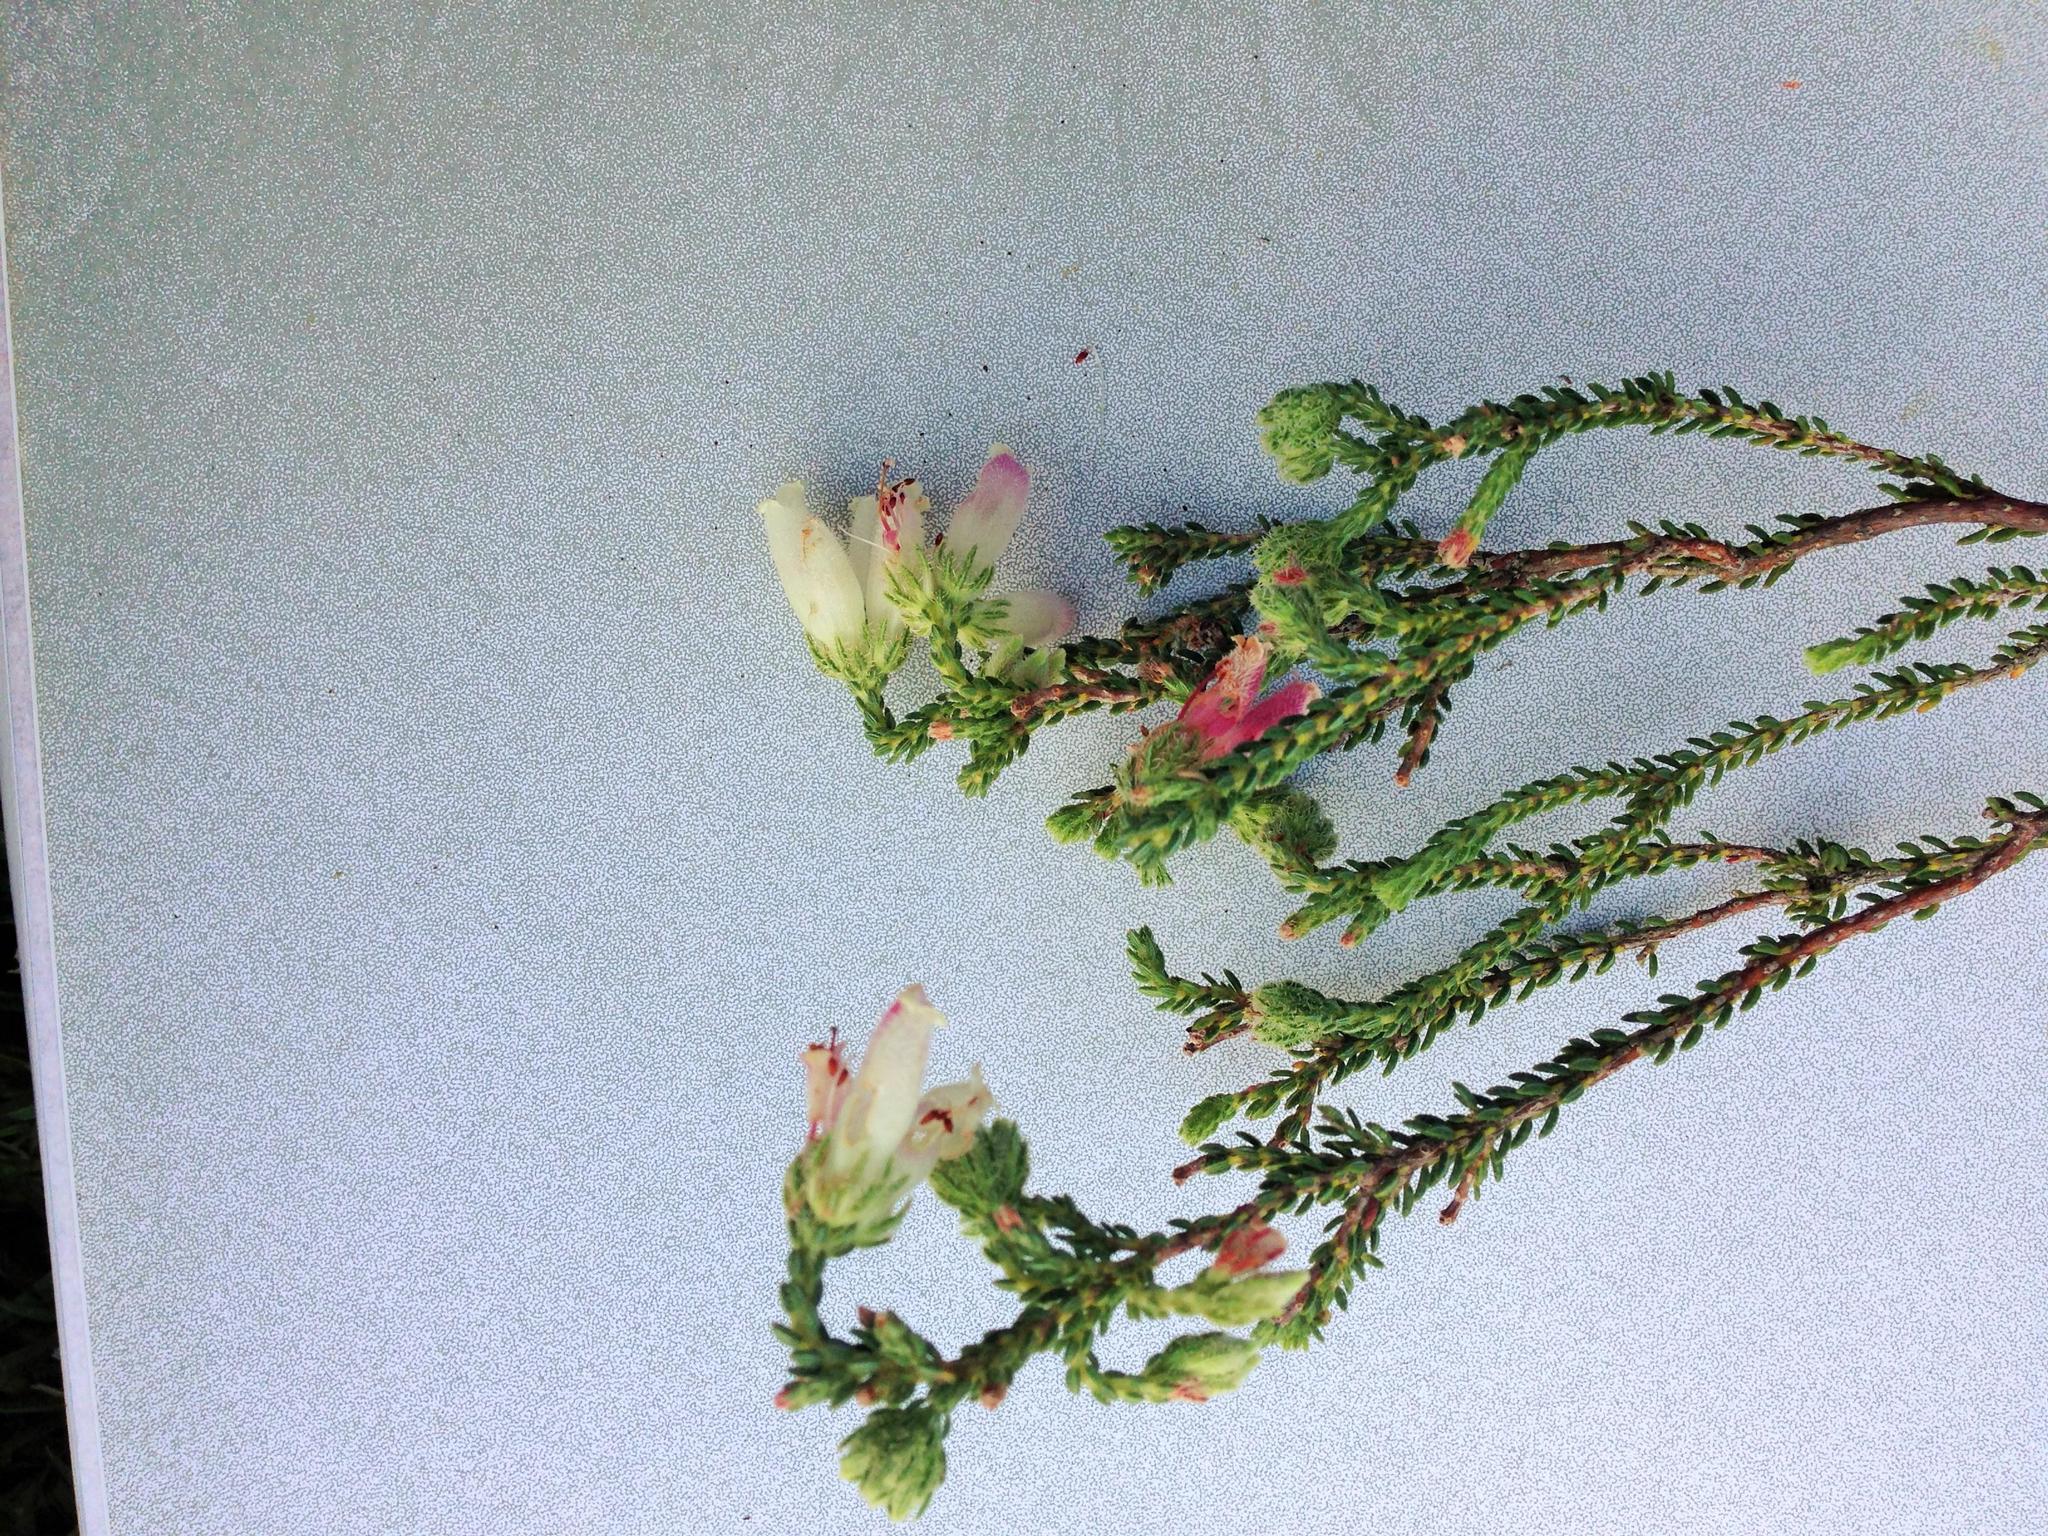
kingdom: Plantae
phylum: Tracheophyta
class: Magnoliopsida
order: Ericales
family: Ericaceae
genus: Erica
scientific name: Erica strigilifolia
